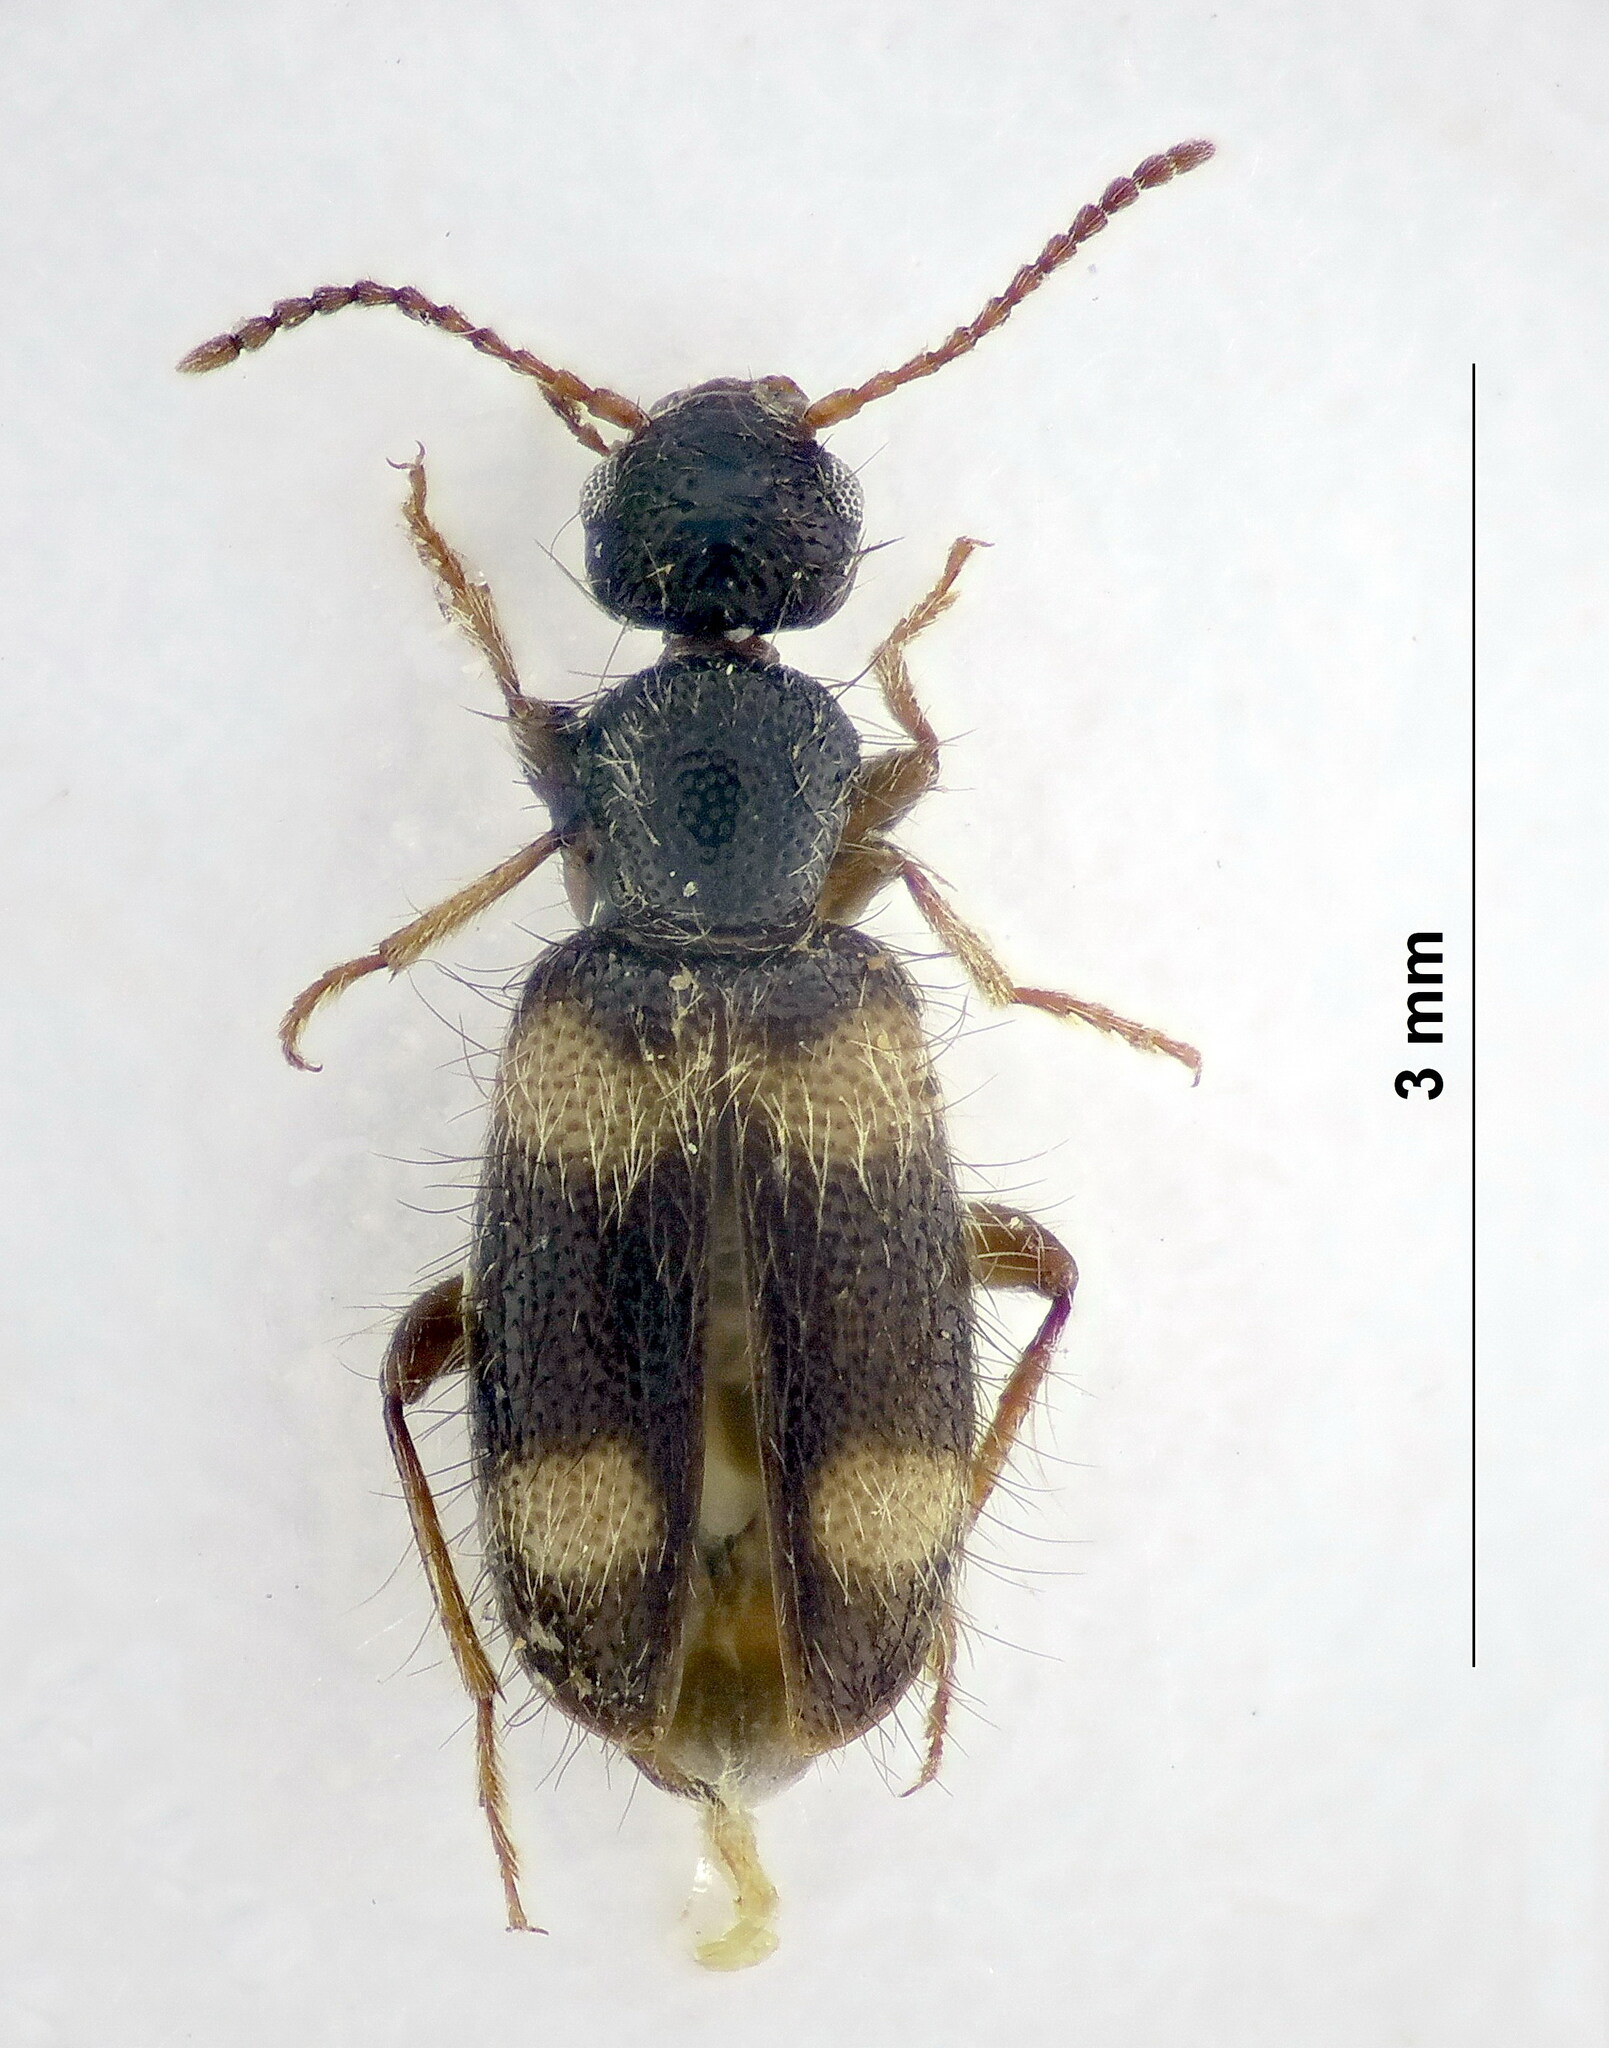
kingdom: Animalia
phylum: Arthropoda
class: Insecta
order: Coleoptera
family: Anthicidae
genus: Hirticollis
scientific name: Hirticollis Hirticomus quadriguttatus
